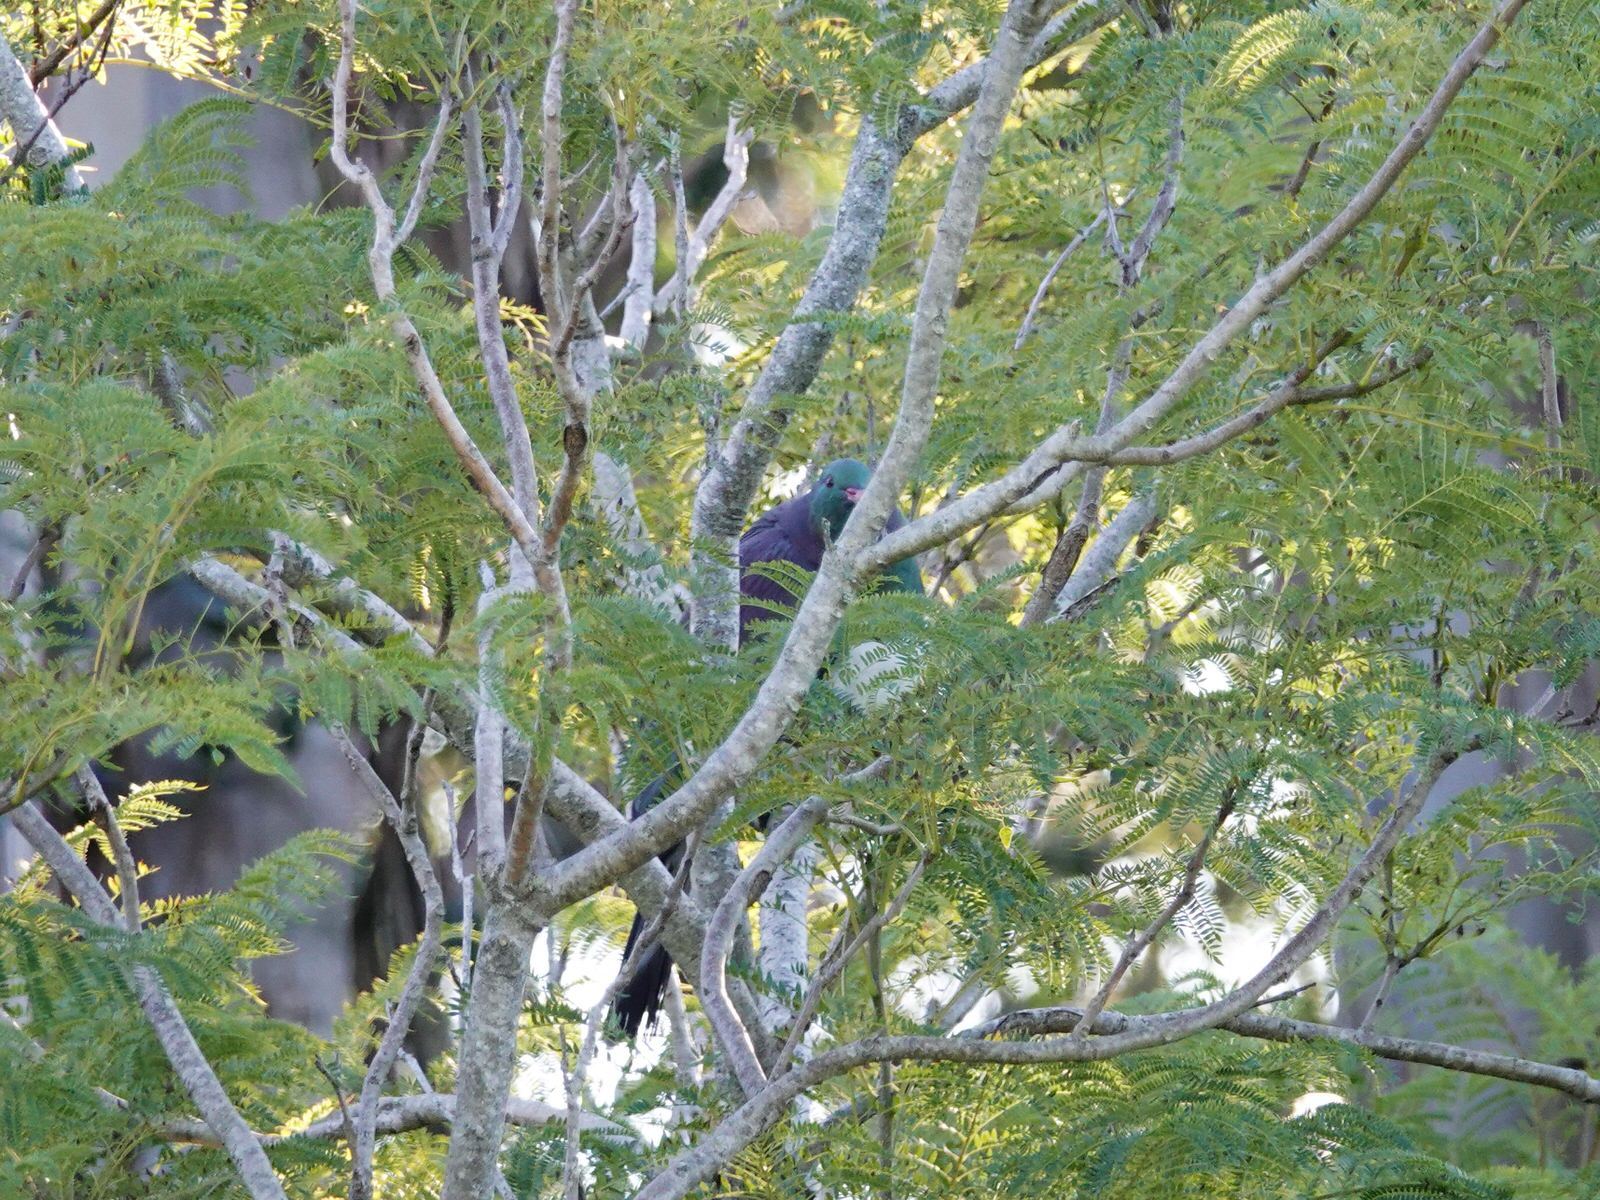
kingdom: Animalia
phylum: Chordata
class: Aves
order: Columbiformes
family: Columbidae
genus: Hemiphaga
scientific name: Hemiphaga novaeseelandiae
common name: New zealand pigeon
